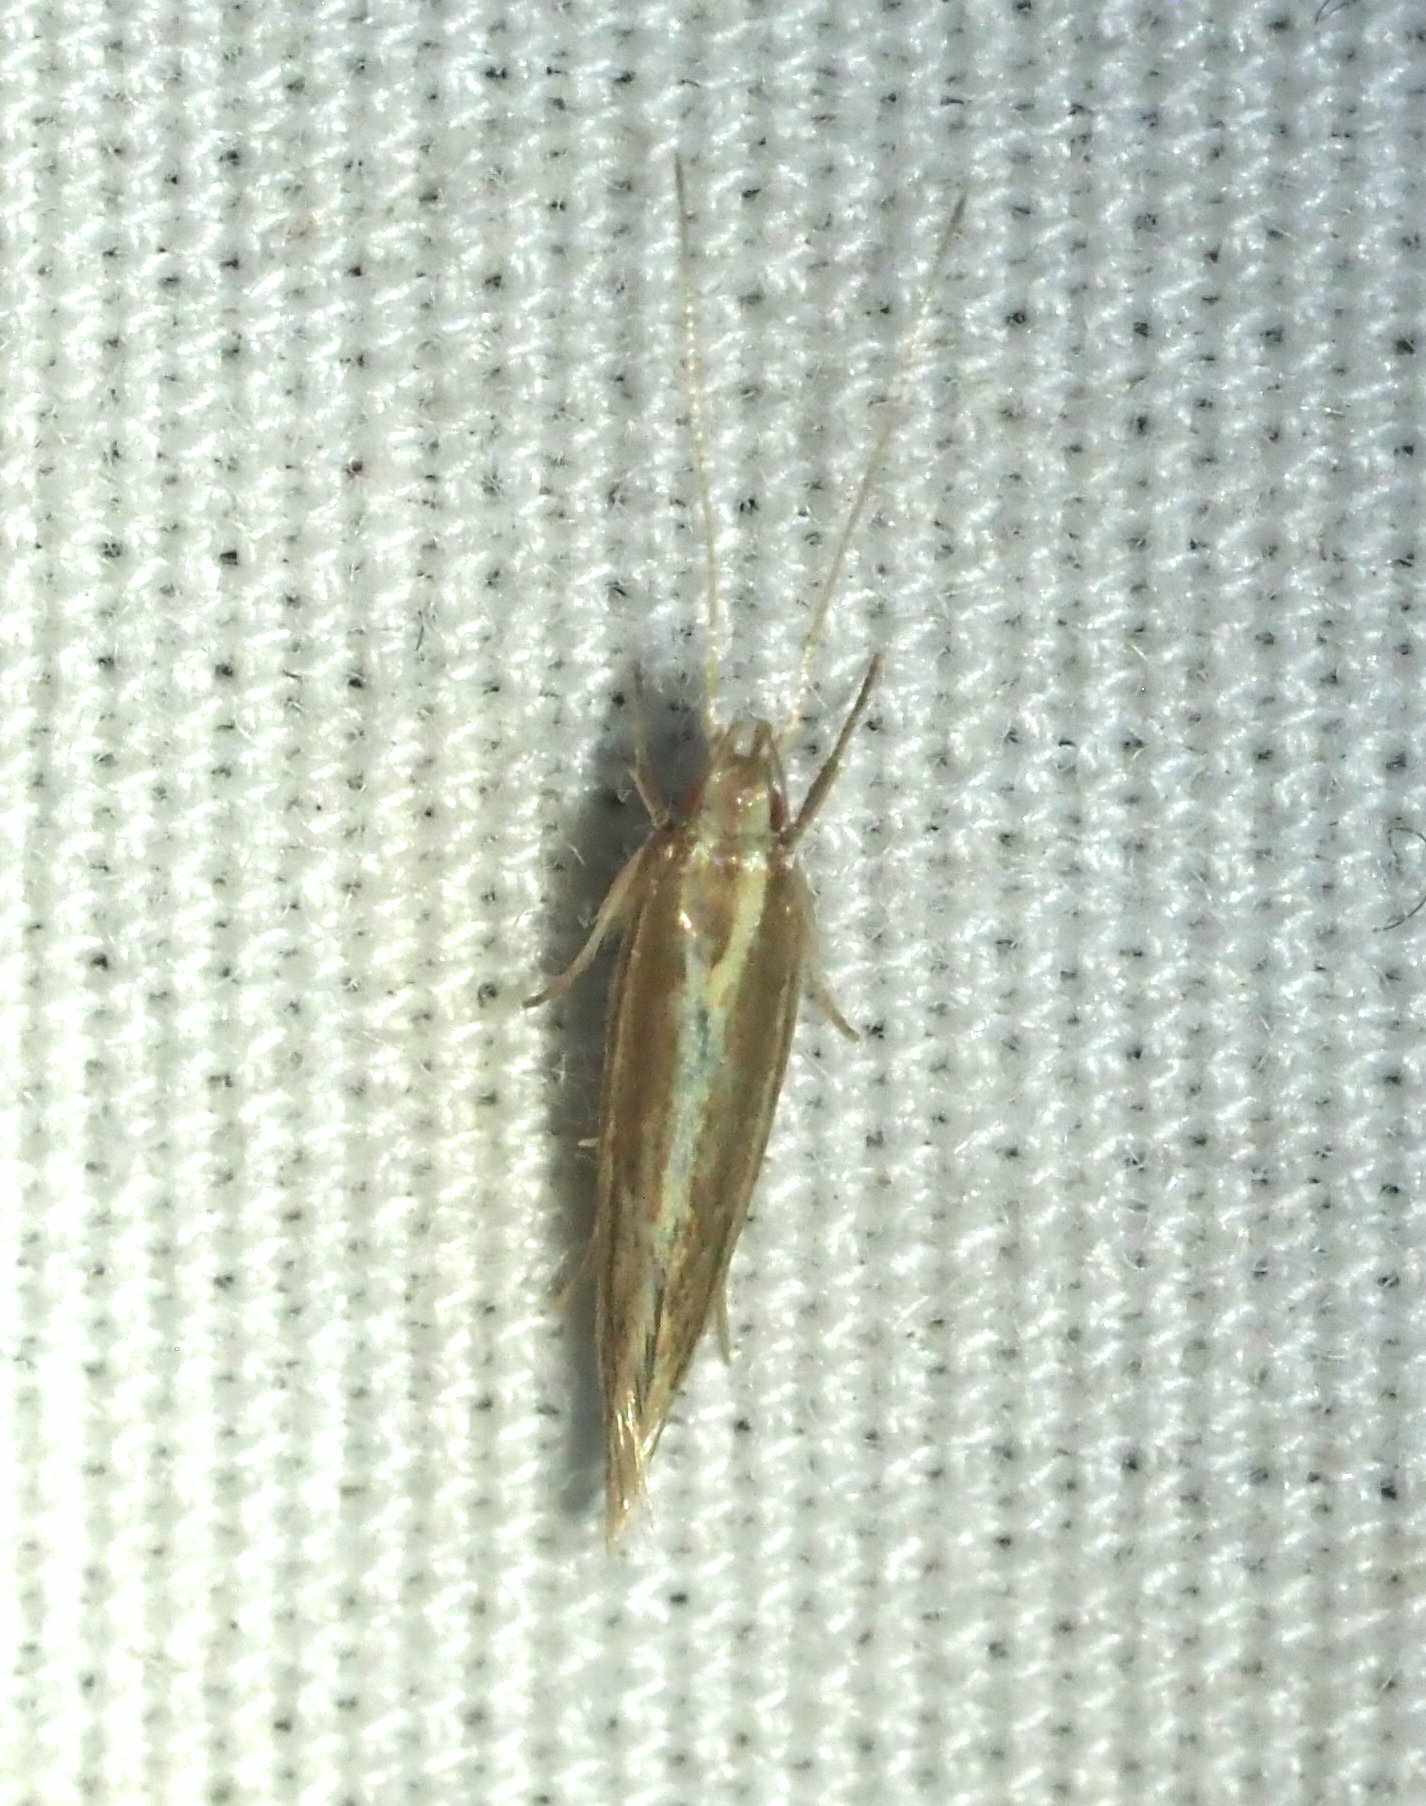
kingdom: Animalia
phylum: Arthropoda
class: Insecta
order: Lepidoptera
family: Cosmopterigidae
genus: Asymphorodes
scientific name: Asymphorodes
